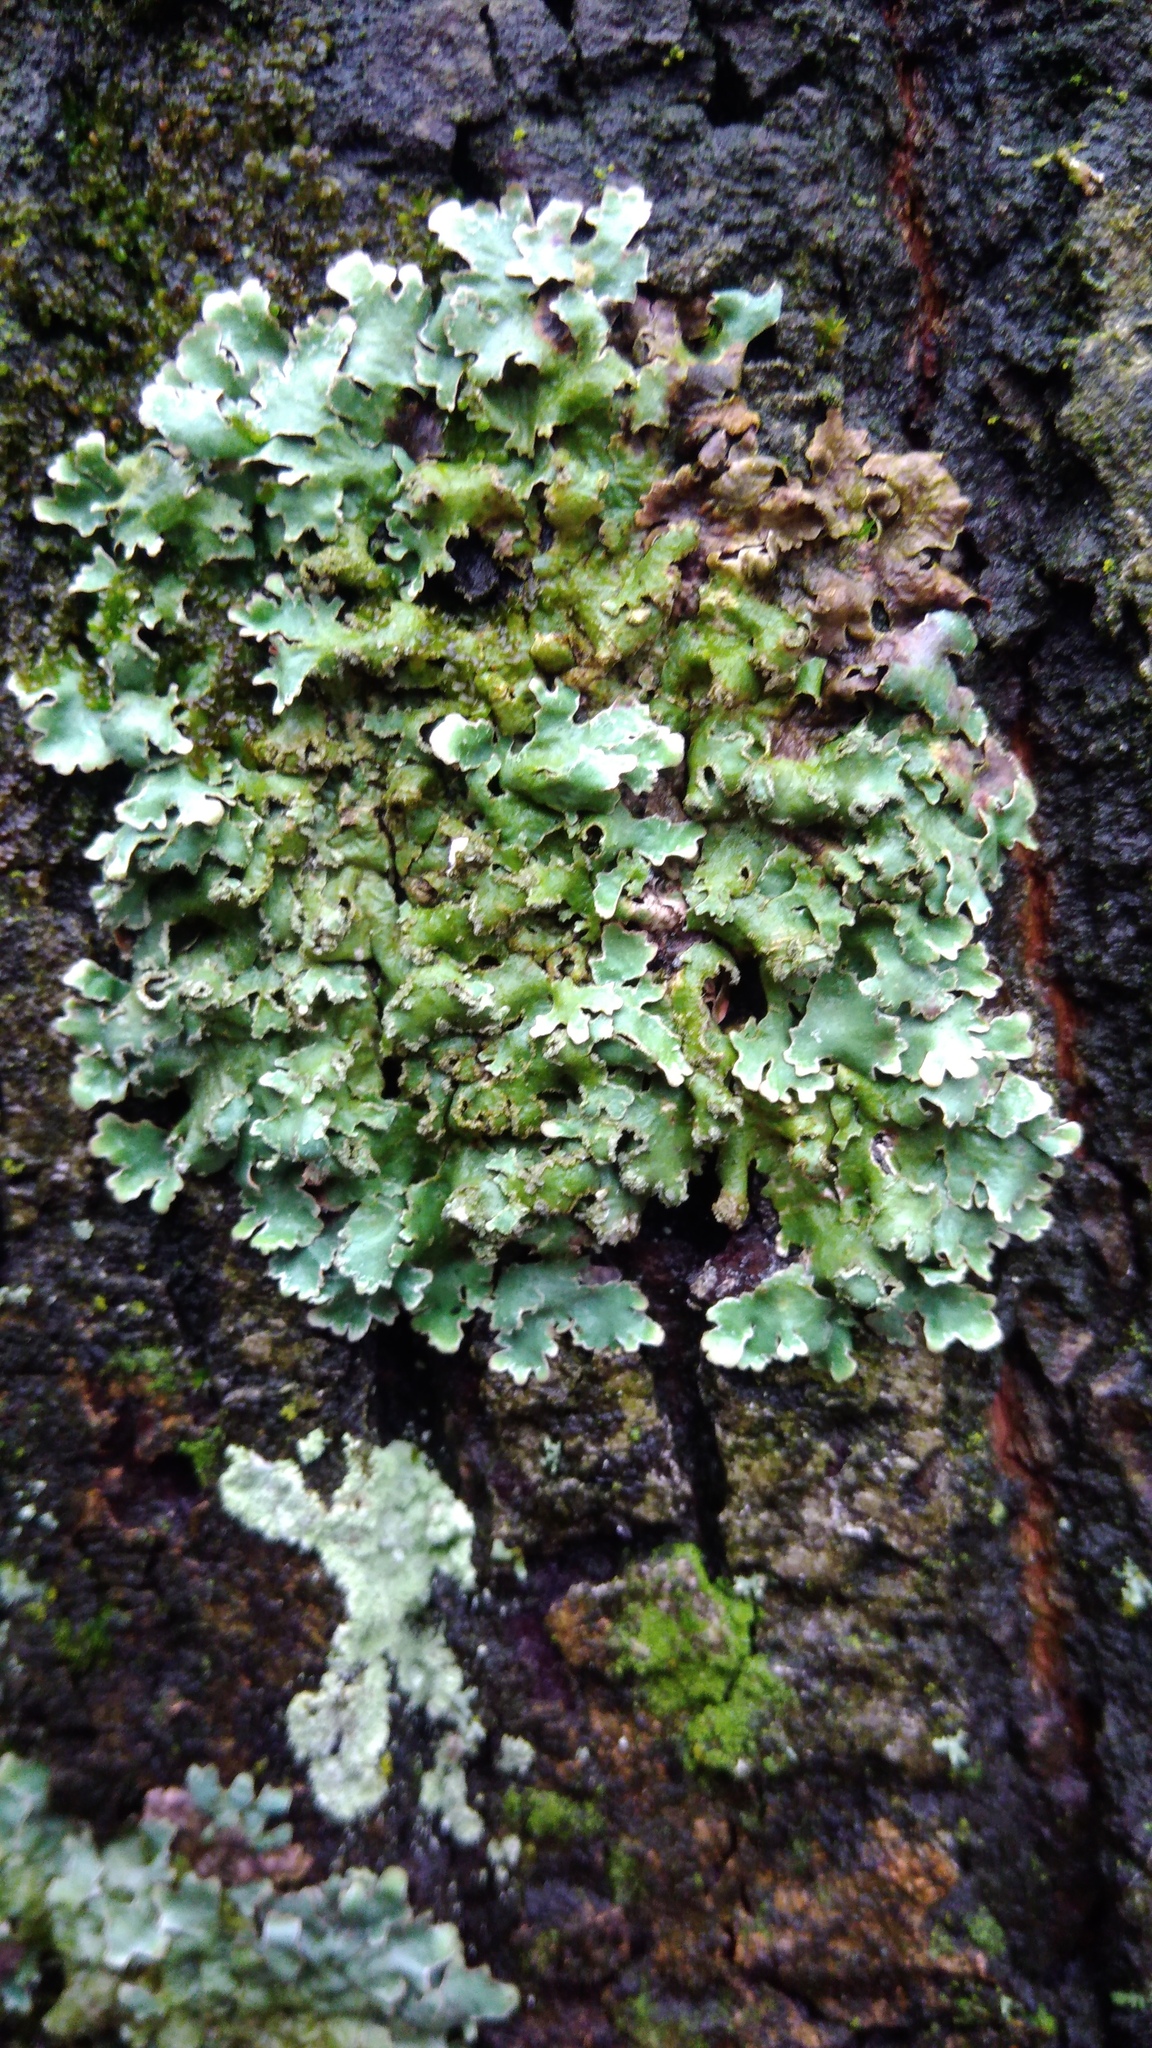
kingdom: Fungi
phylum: Ascomycota
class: Lecanoromycetes
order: Lecanorales
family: Parmeliaceae
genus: Parmelia
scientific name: Parmelia sulcata
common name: Netted shield lichen
